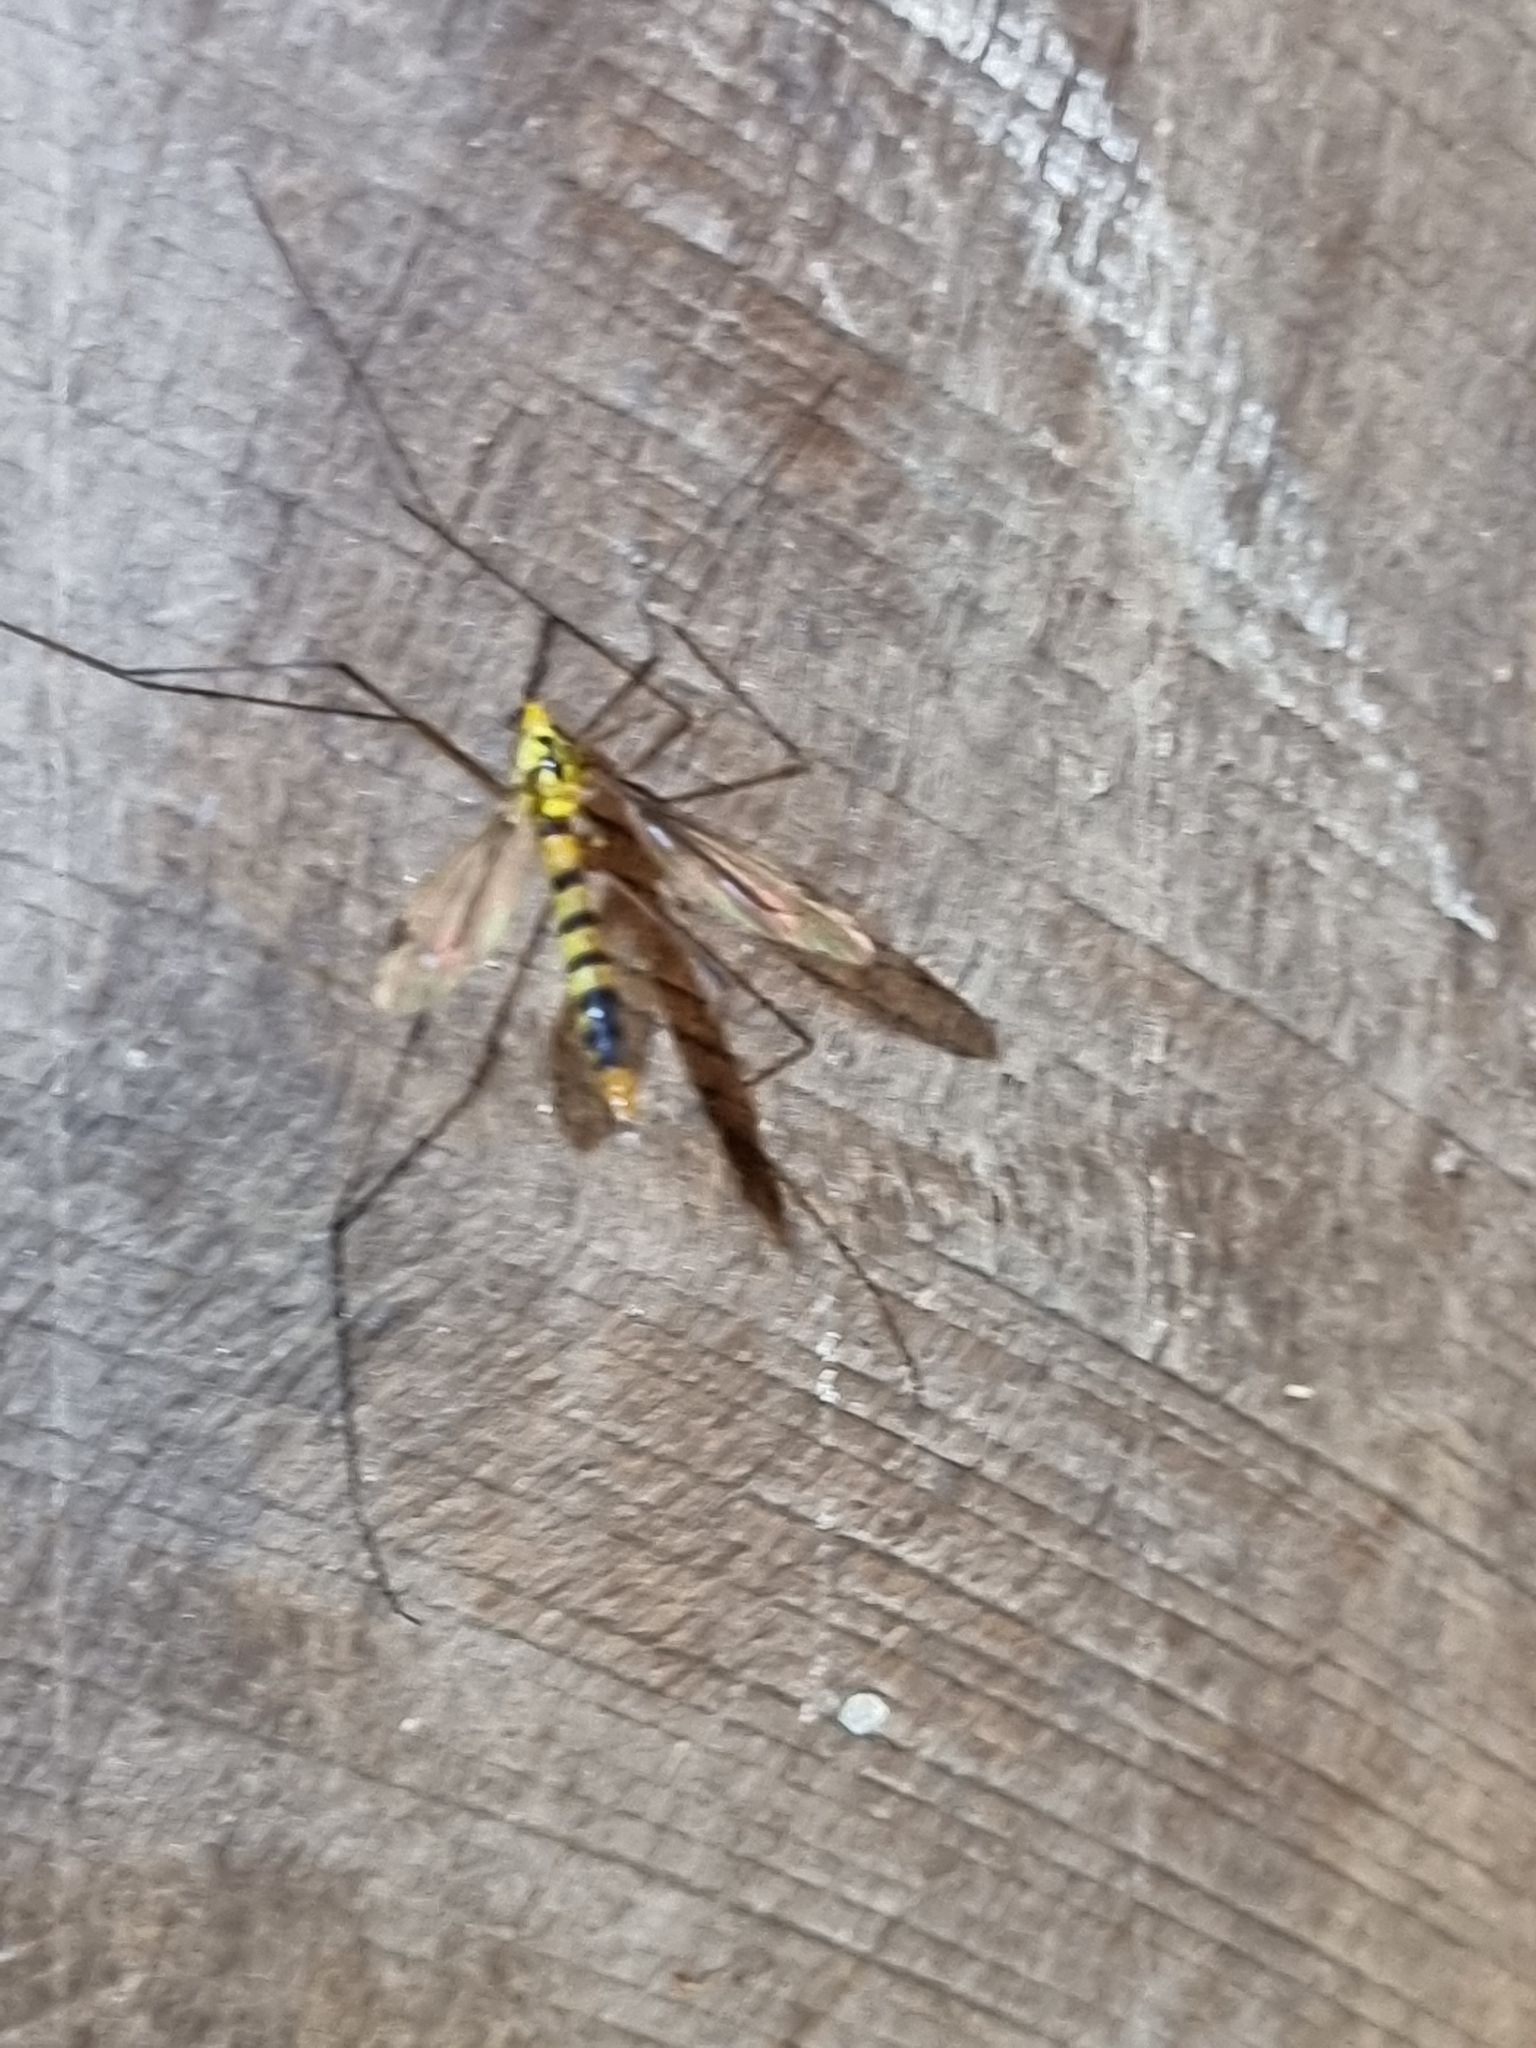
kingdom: Animalia
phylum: Arthropoda
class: Insecta
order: Diptera
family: Tipulidae
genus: Nephrotoma
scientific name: Nephrotoma australasiae
